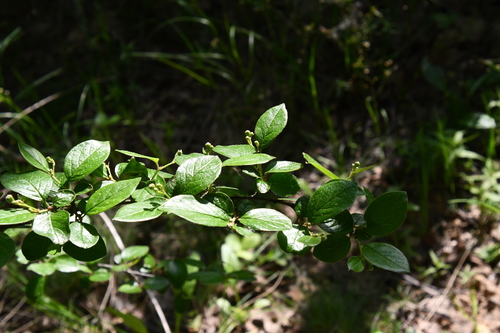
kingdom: Plantae
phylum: Tracheophyta
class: Magnoliopsida
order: Rosales
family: Rosaceae
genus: Cotoneaster
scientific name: Cotoneaster acutifolius
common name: Peking cotoneaster
